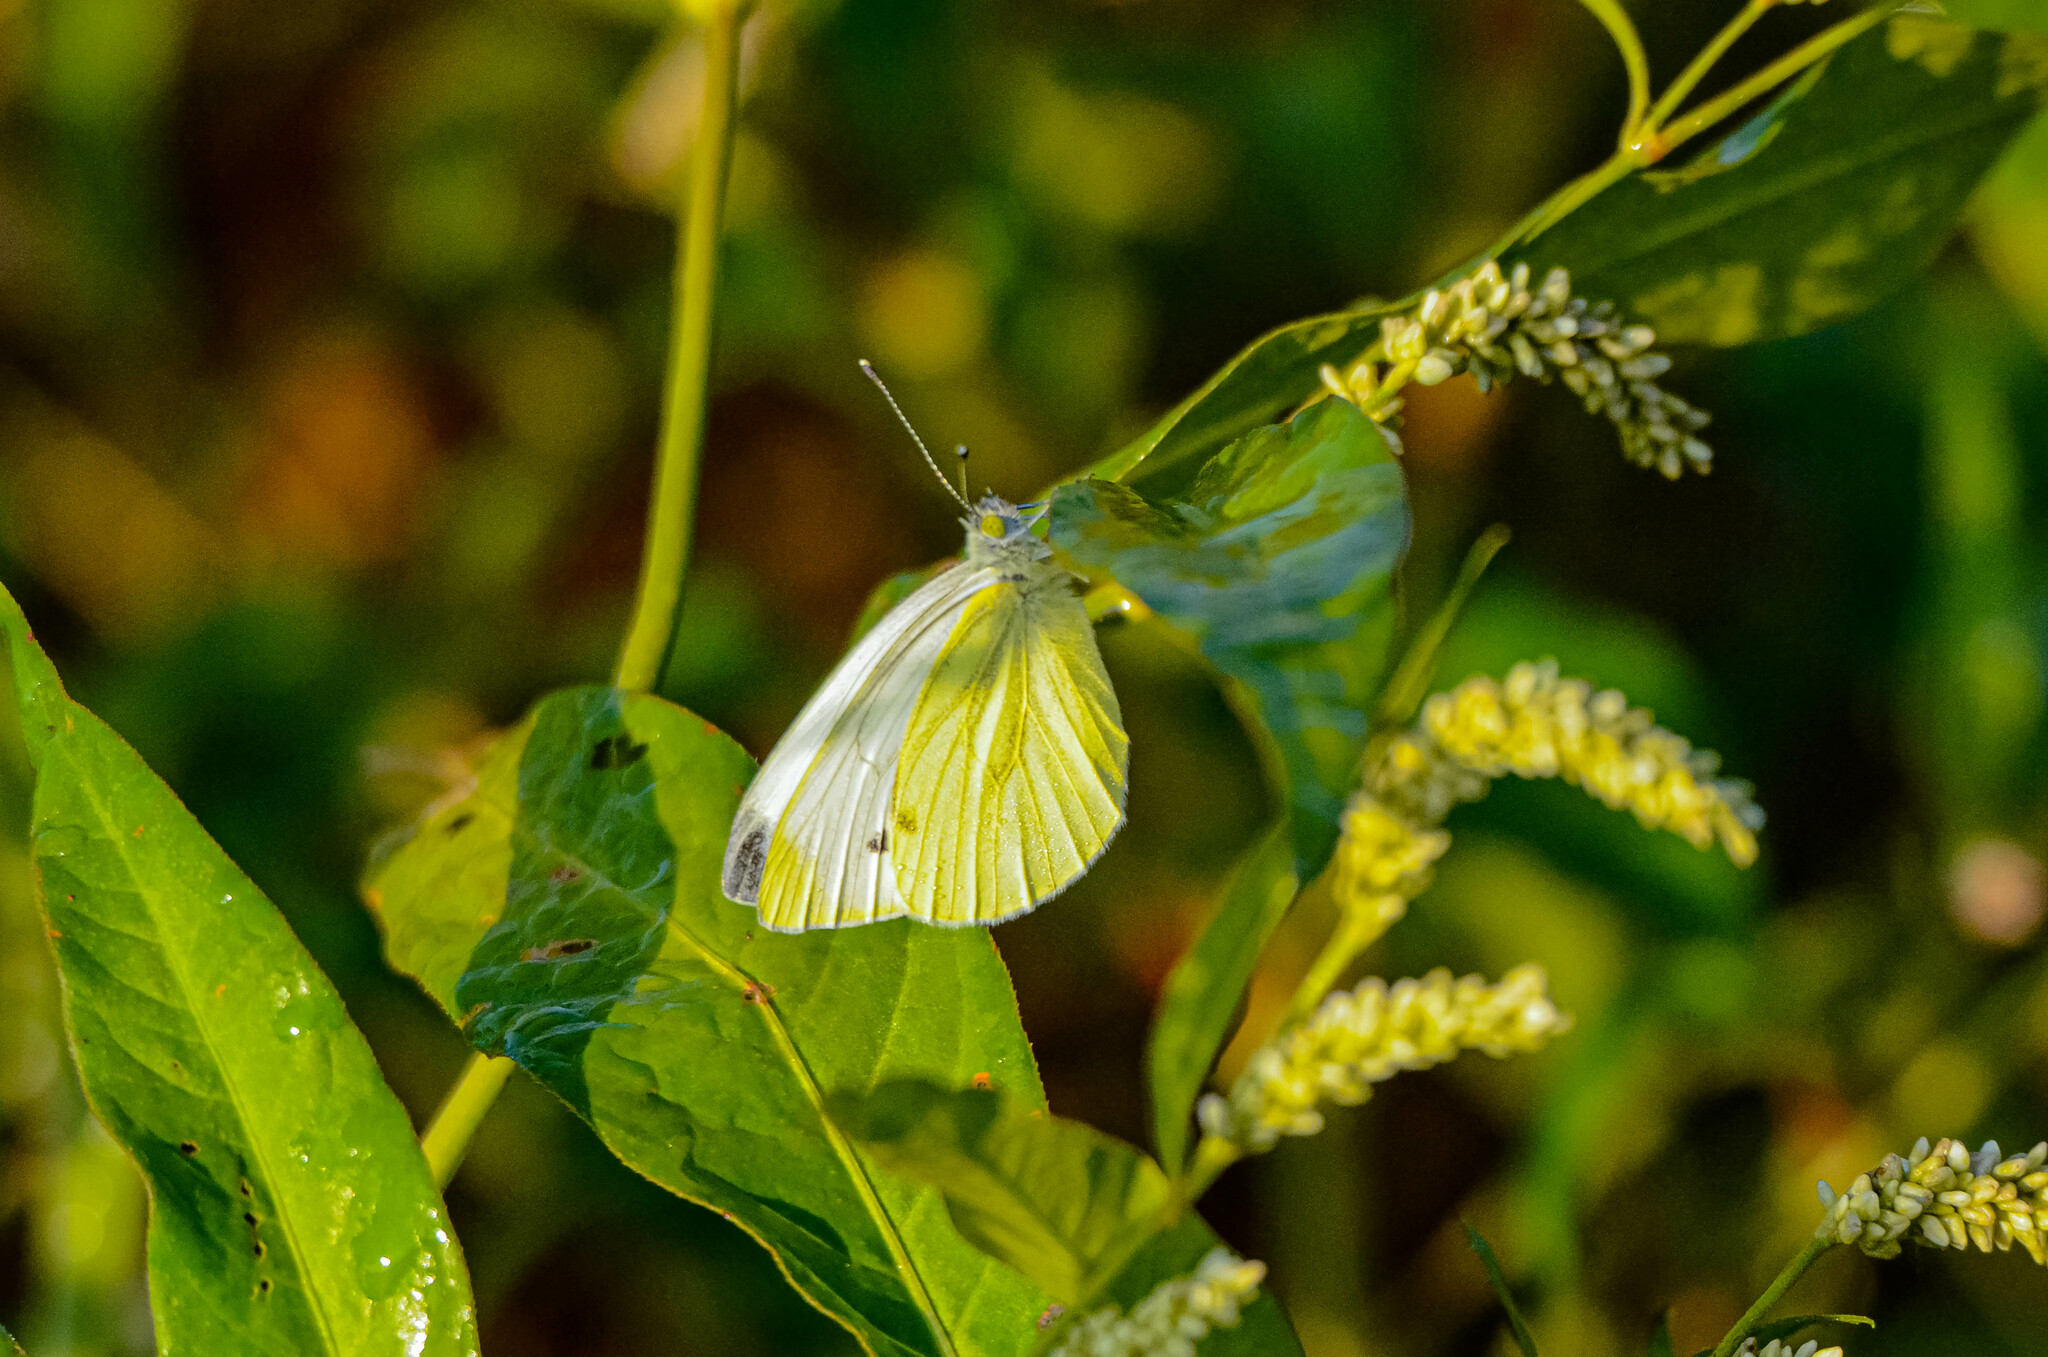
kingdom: Animalia
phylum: Arthropoda
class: Insecta
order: Lepidoptera
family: Pieridae
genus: Pieris
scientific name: Pieris napi
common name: Green-veined white
